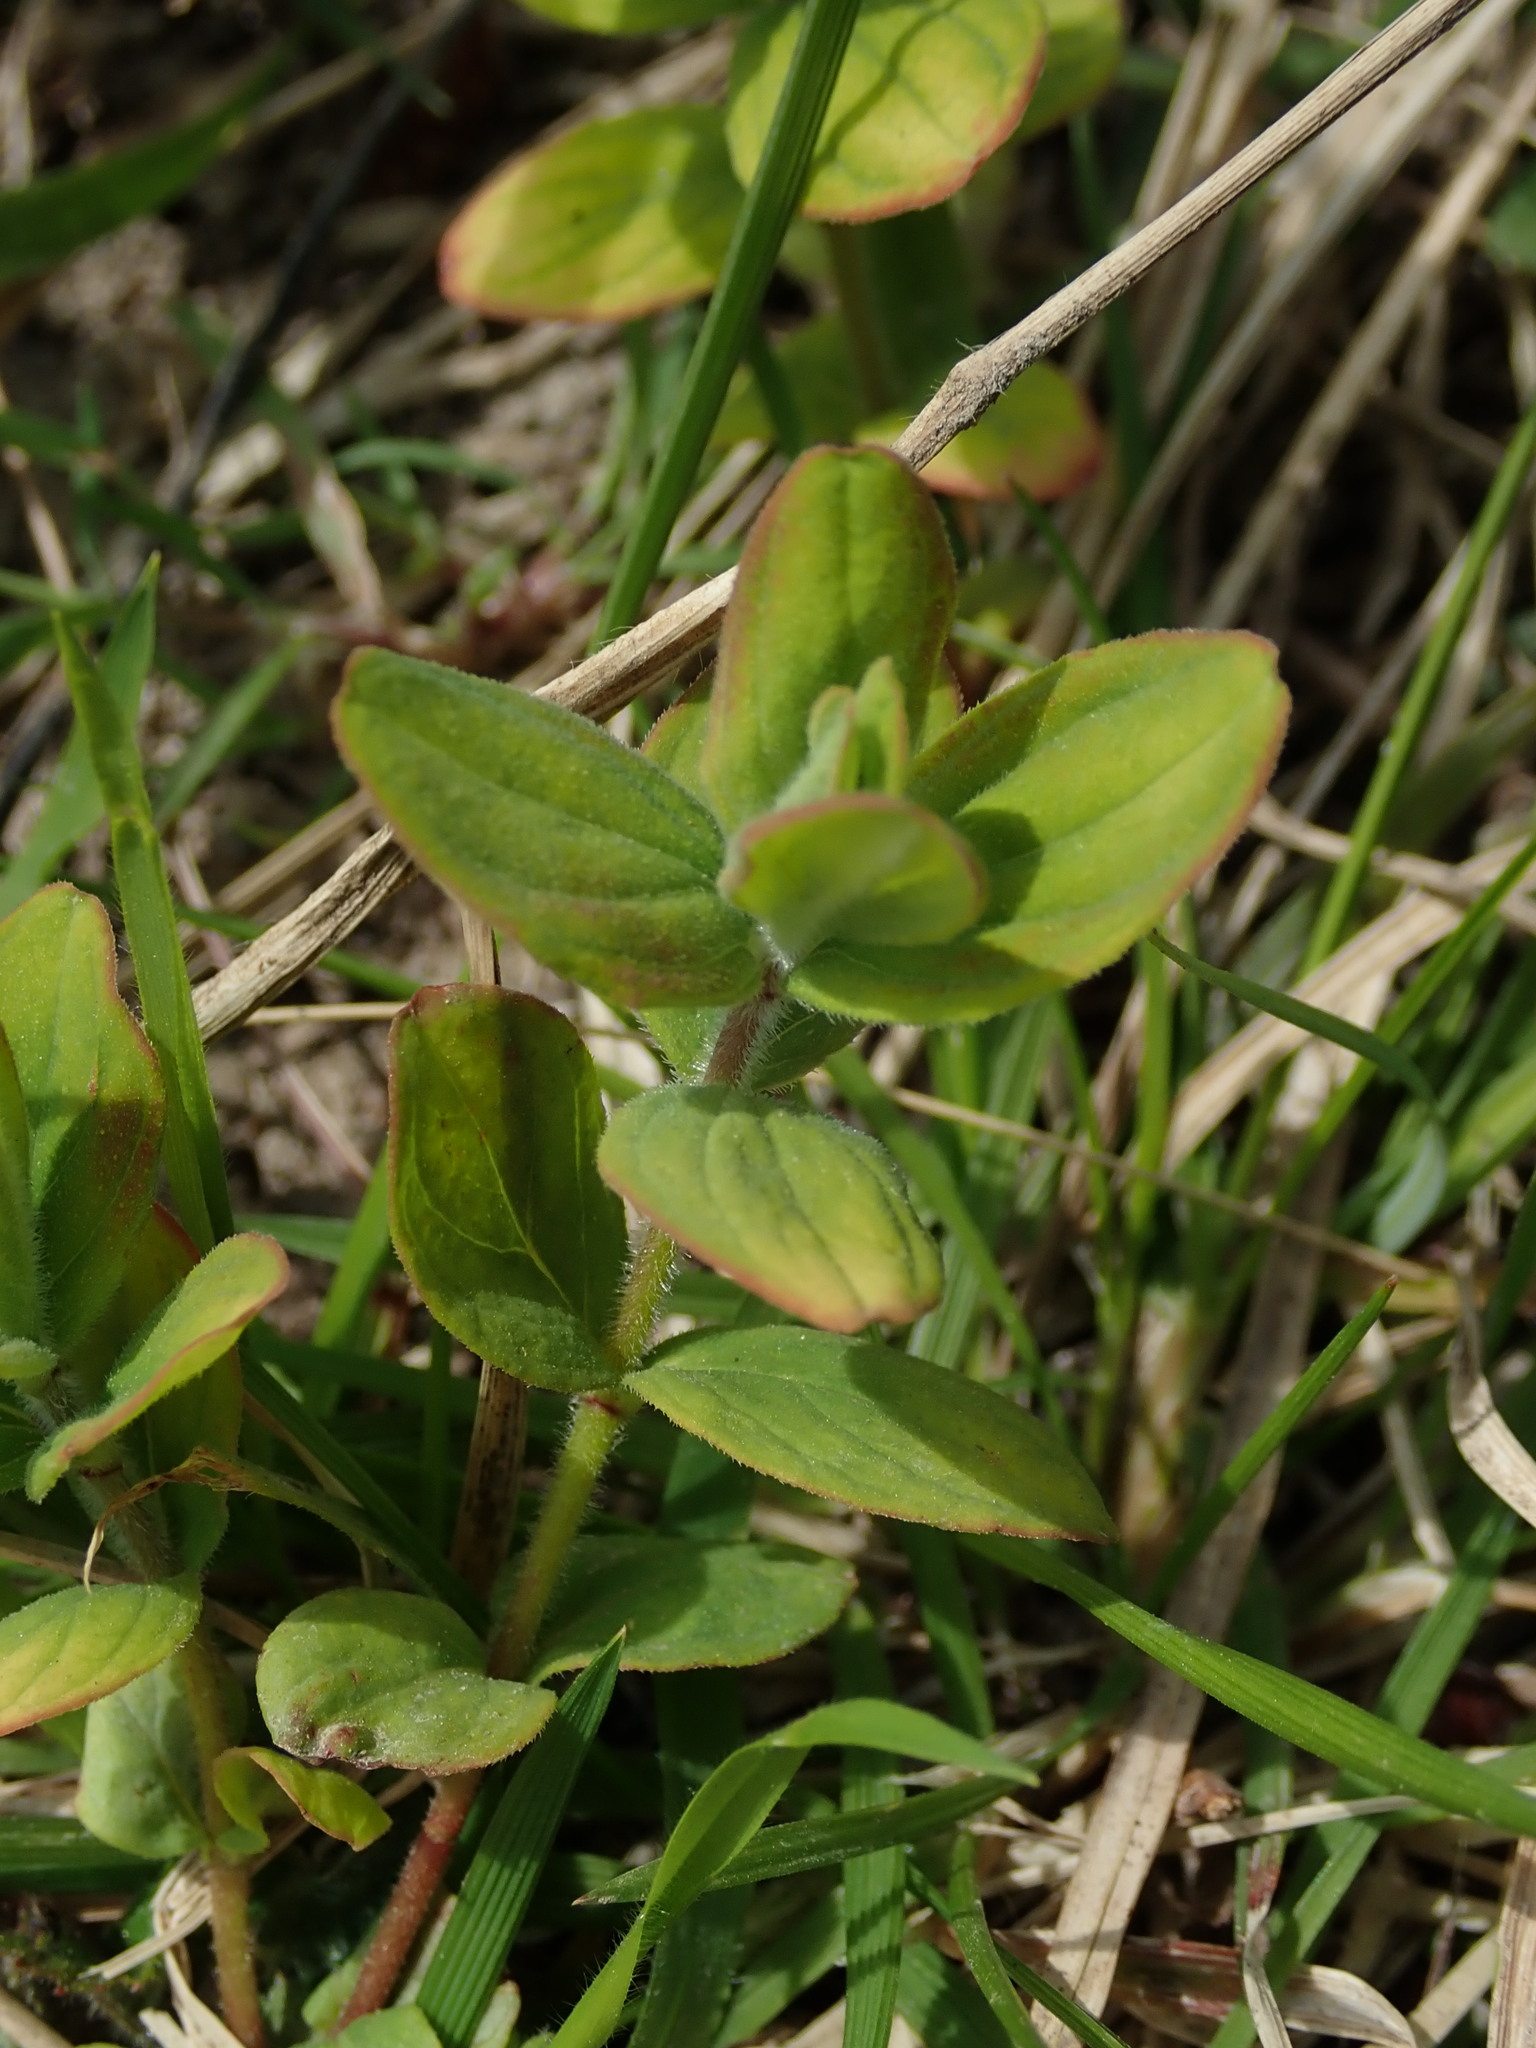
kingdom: Plantae
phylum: Tracheophyta
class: Magnoliopsida
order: Malpighiales
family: Hypericaceae
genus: Hypericum
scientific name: Hypericum hirsutum
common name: Hairy st. john's-wort
